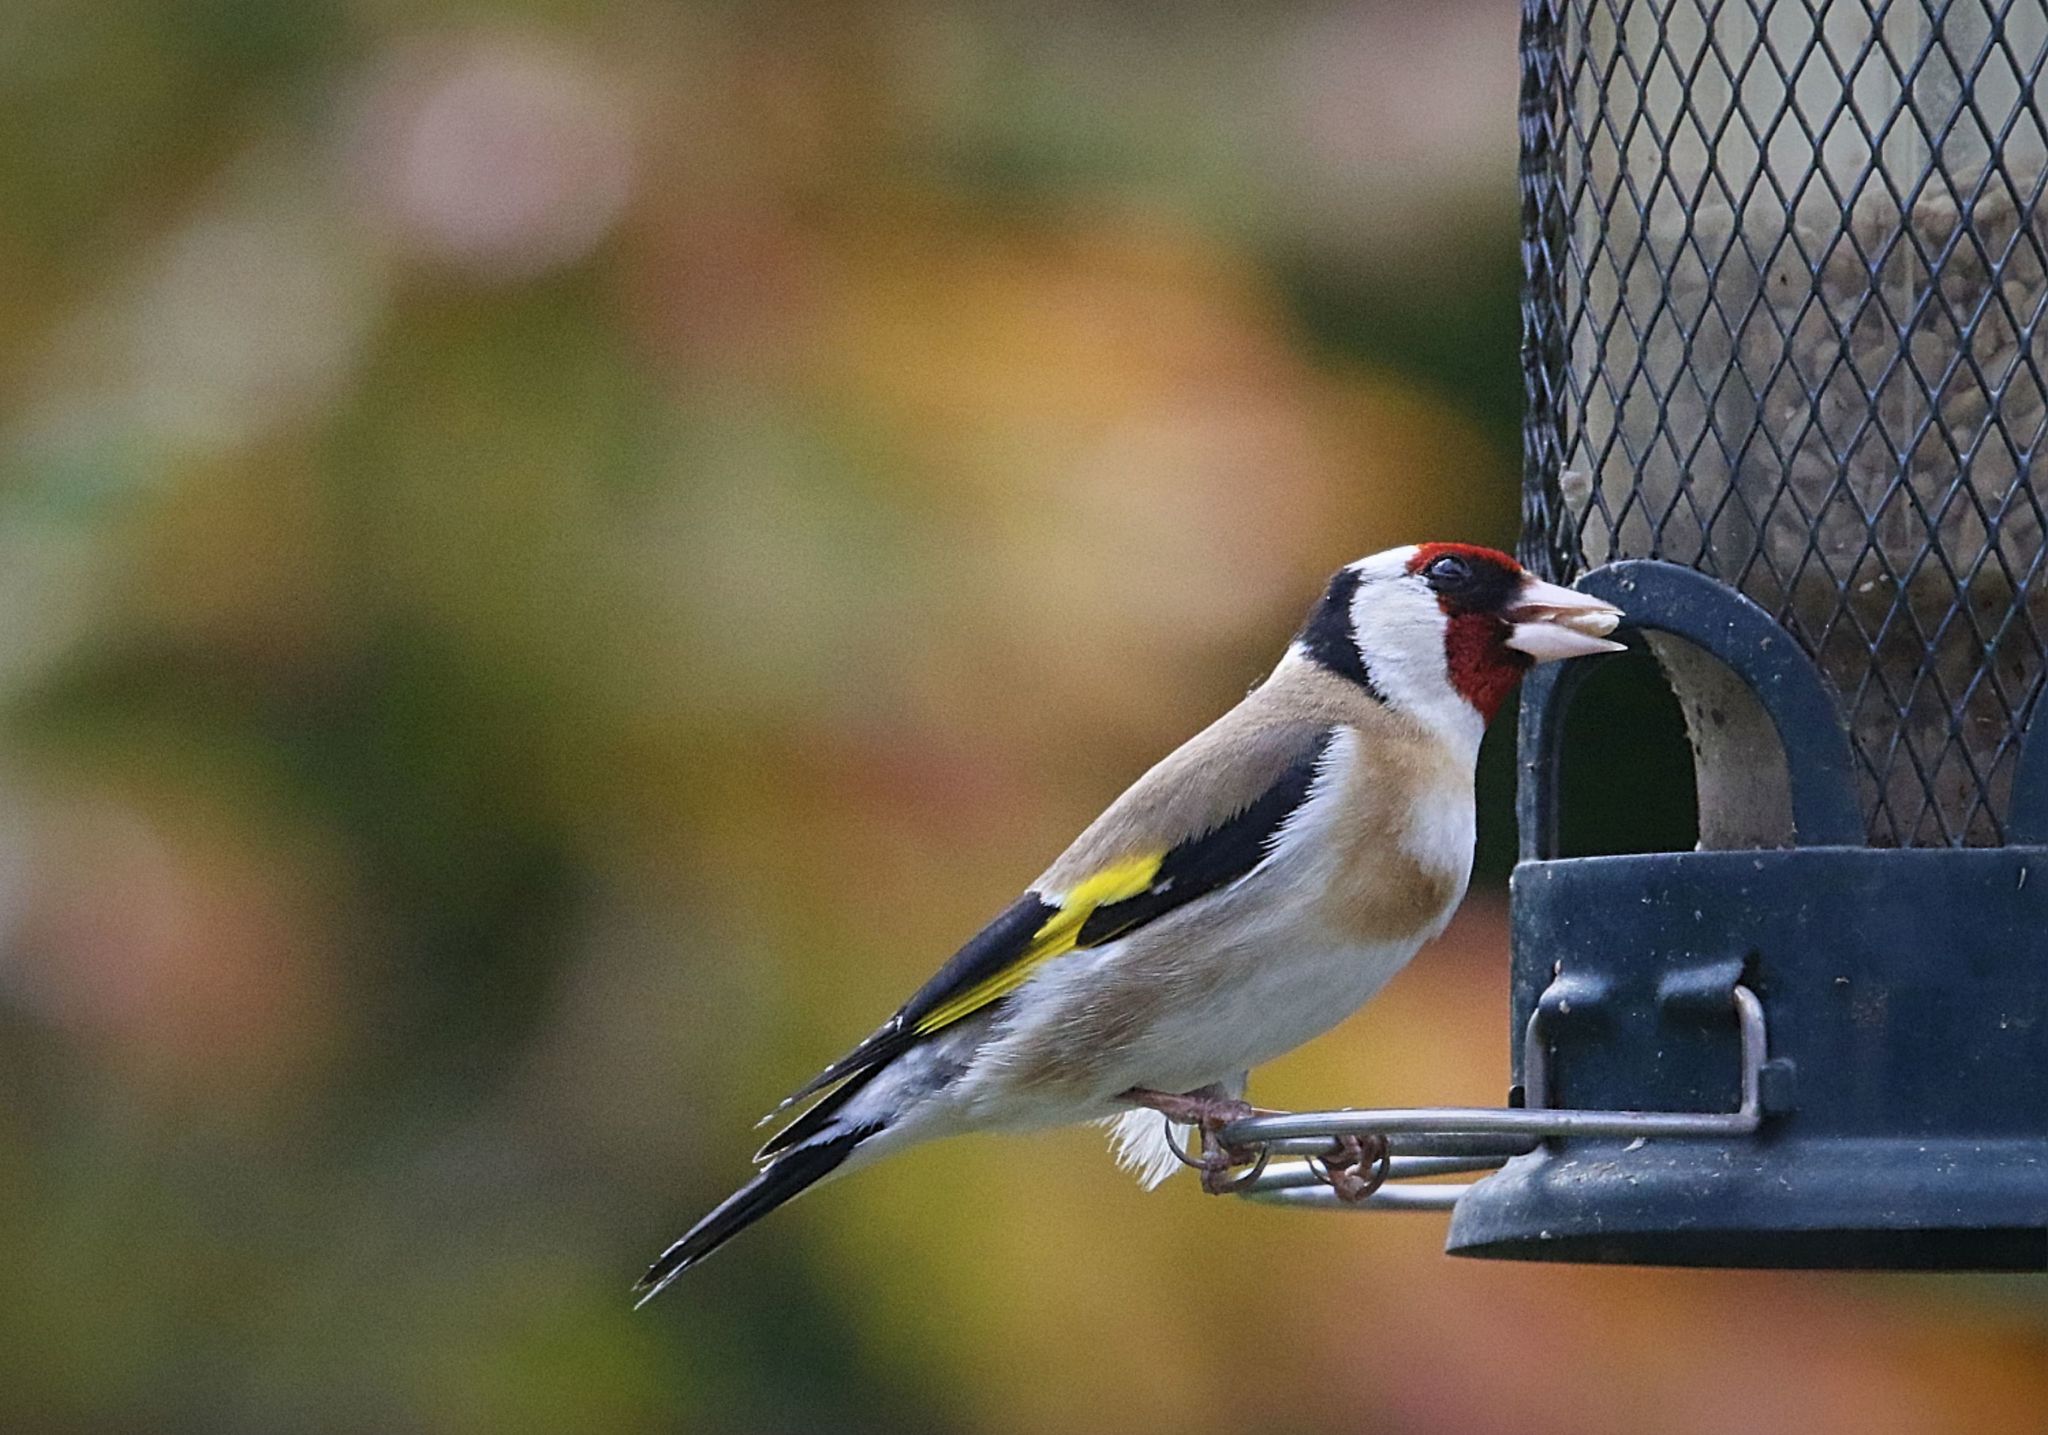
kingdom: Animalia
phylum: Chordata
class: Aves
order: Passeriformes
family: Fringillidae
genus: Carduelis
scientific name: Carduelis carduelis
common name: European goldfinch
